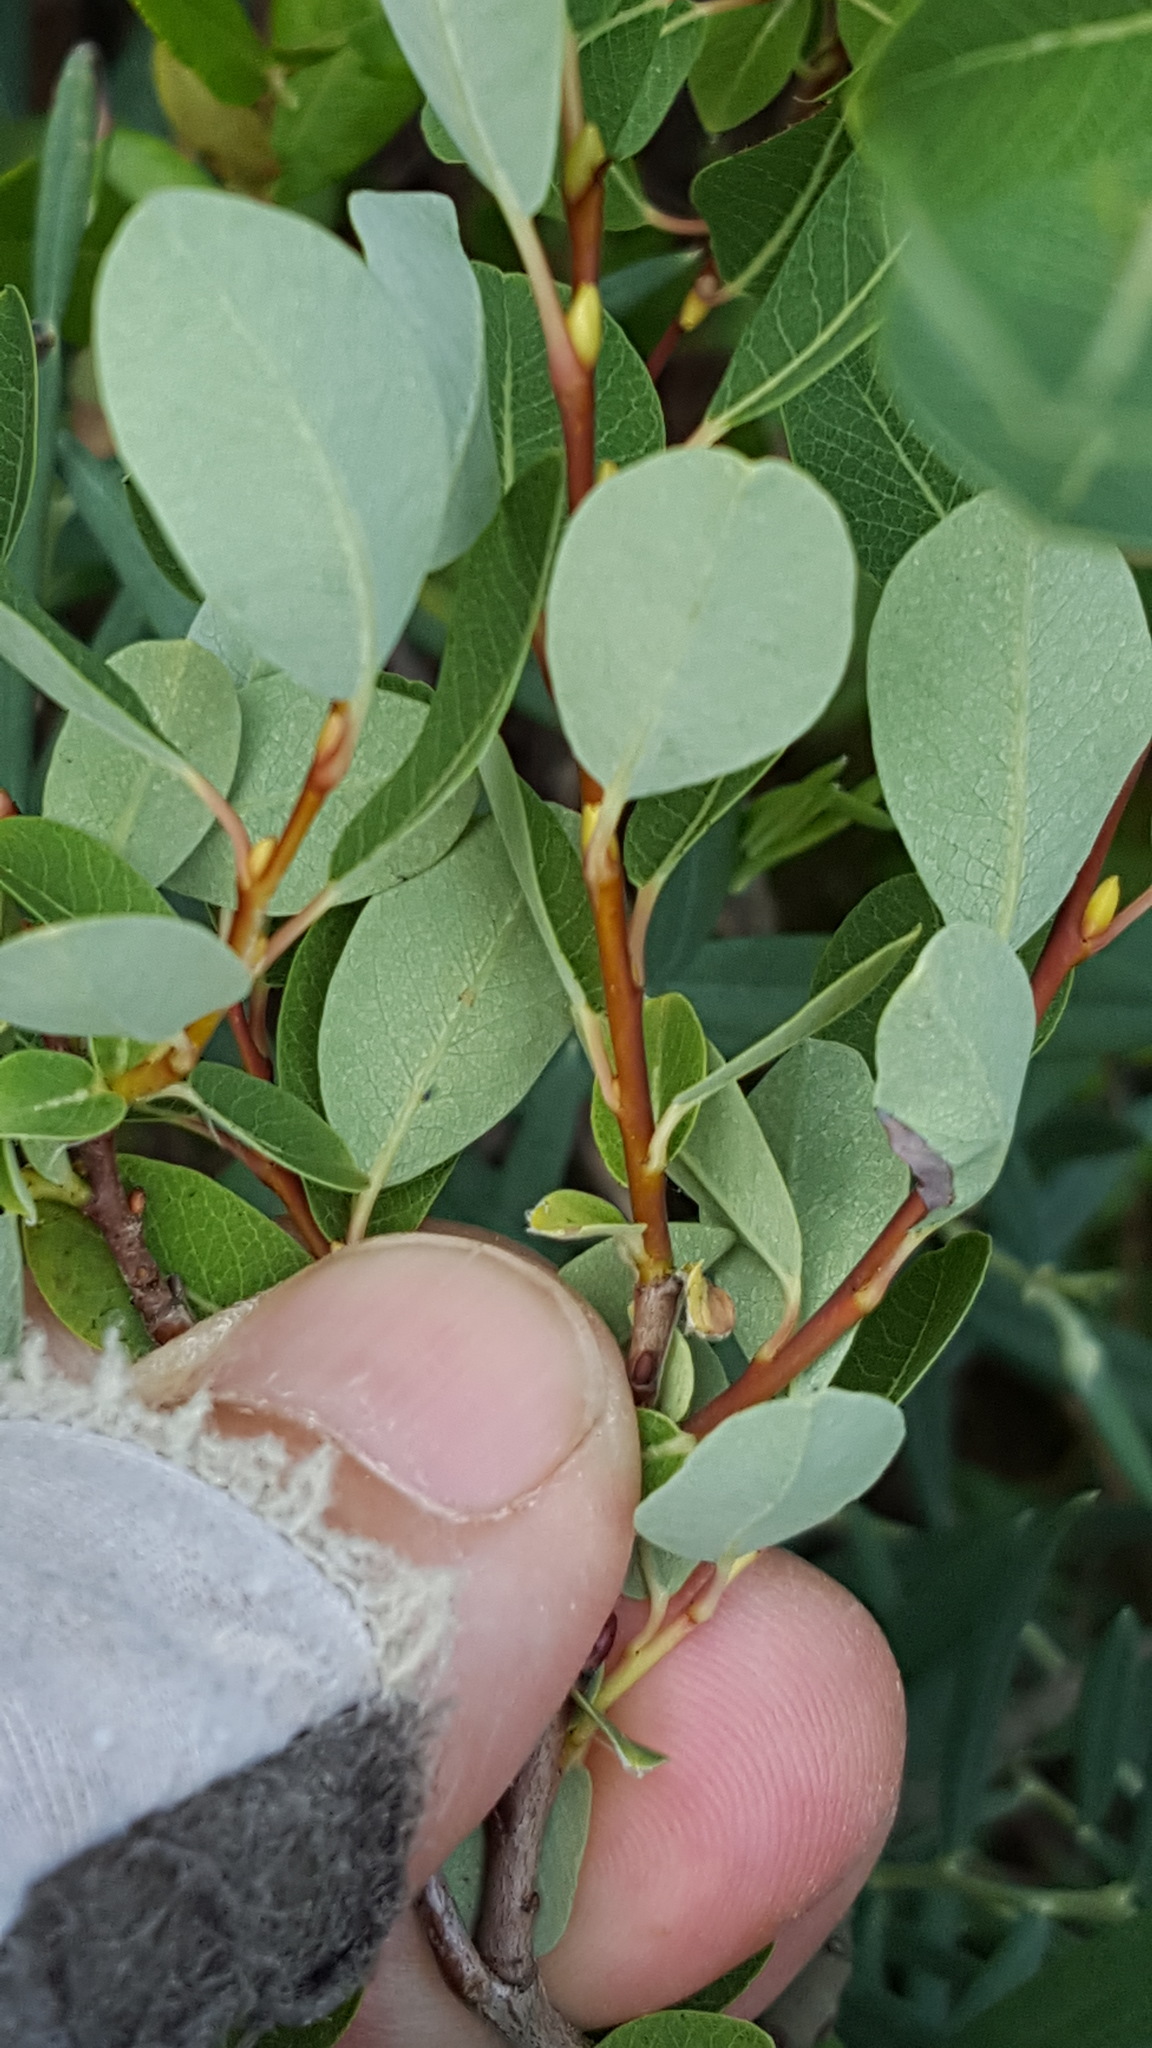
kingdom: Plantae
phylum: Tracheophyta
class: Magnoliopsida
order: Malpighiales
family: Salicaceae
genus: Salix
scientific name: Salix pedicellaris
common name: Bog willow
